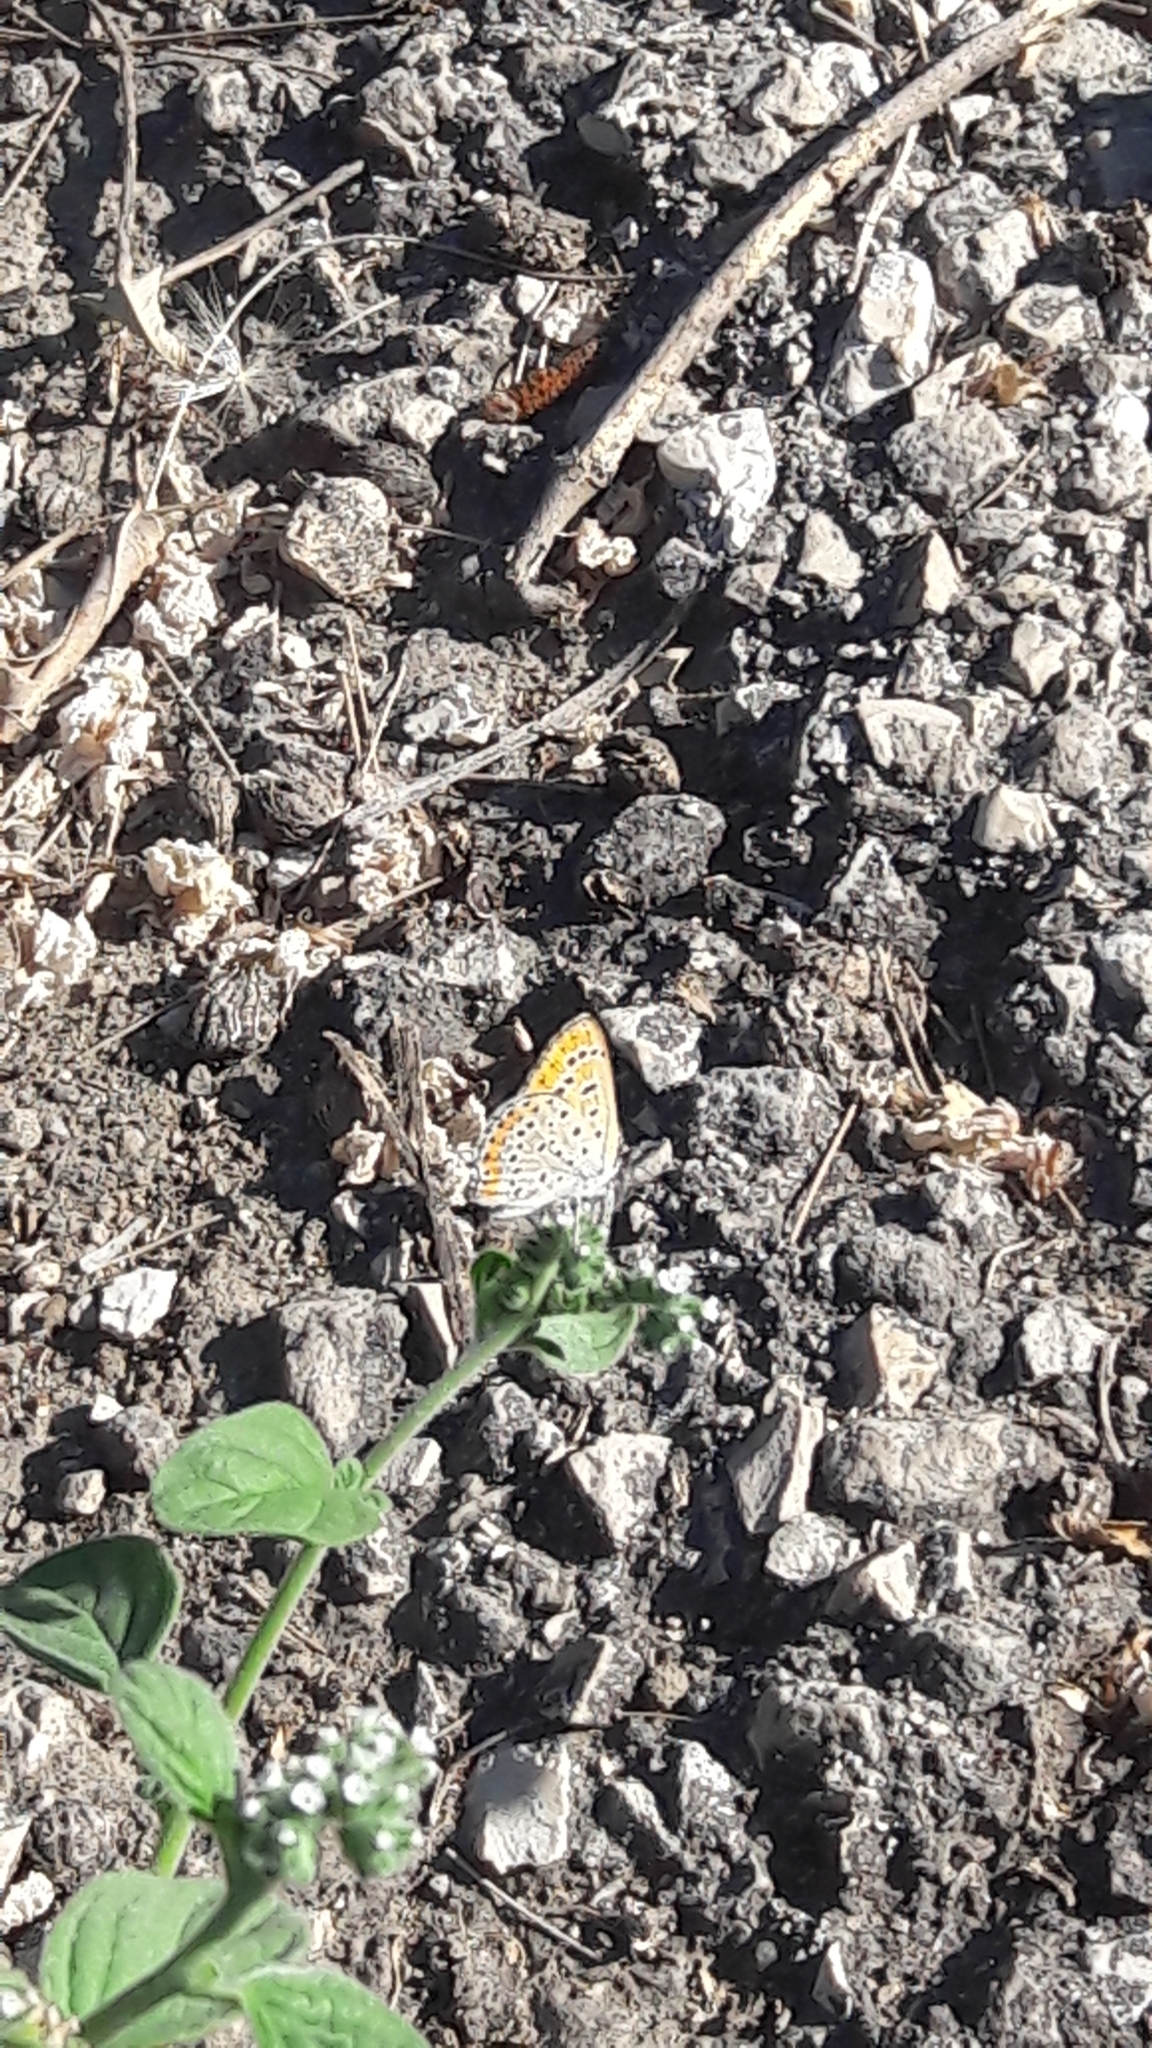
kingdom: Animalia
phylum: Arthropoda
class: Insecta
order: Lepidoptera
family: Lycaenidae
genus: Thersamonia
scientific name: Thersamonia thersamon
